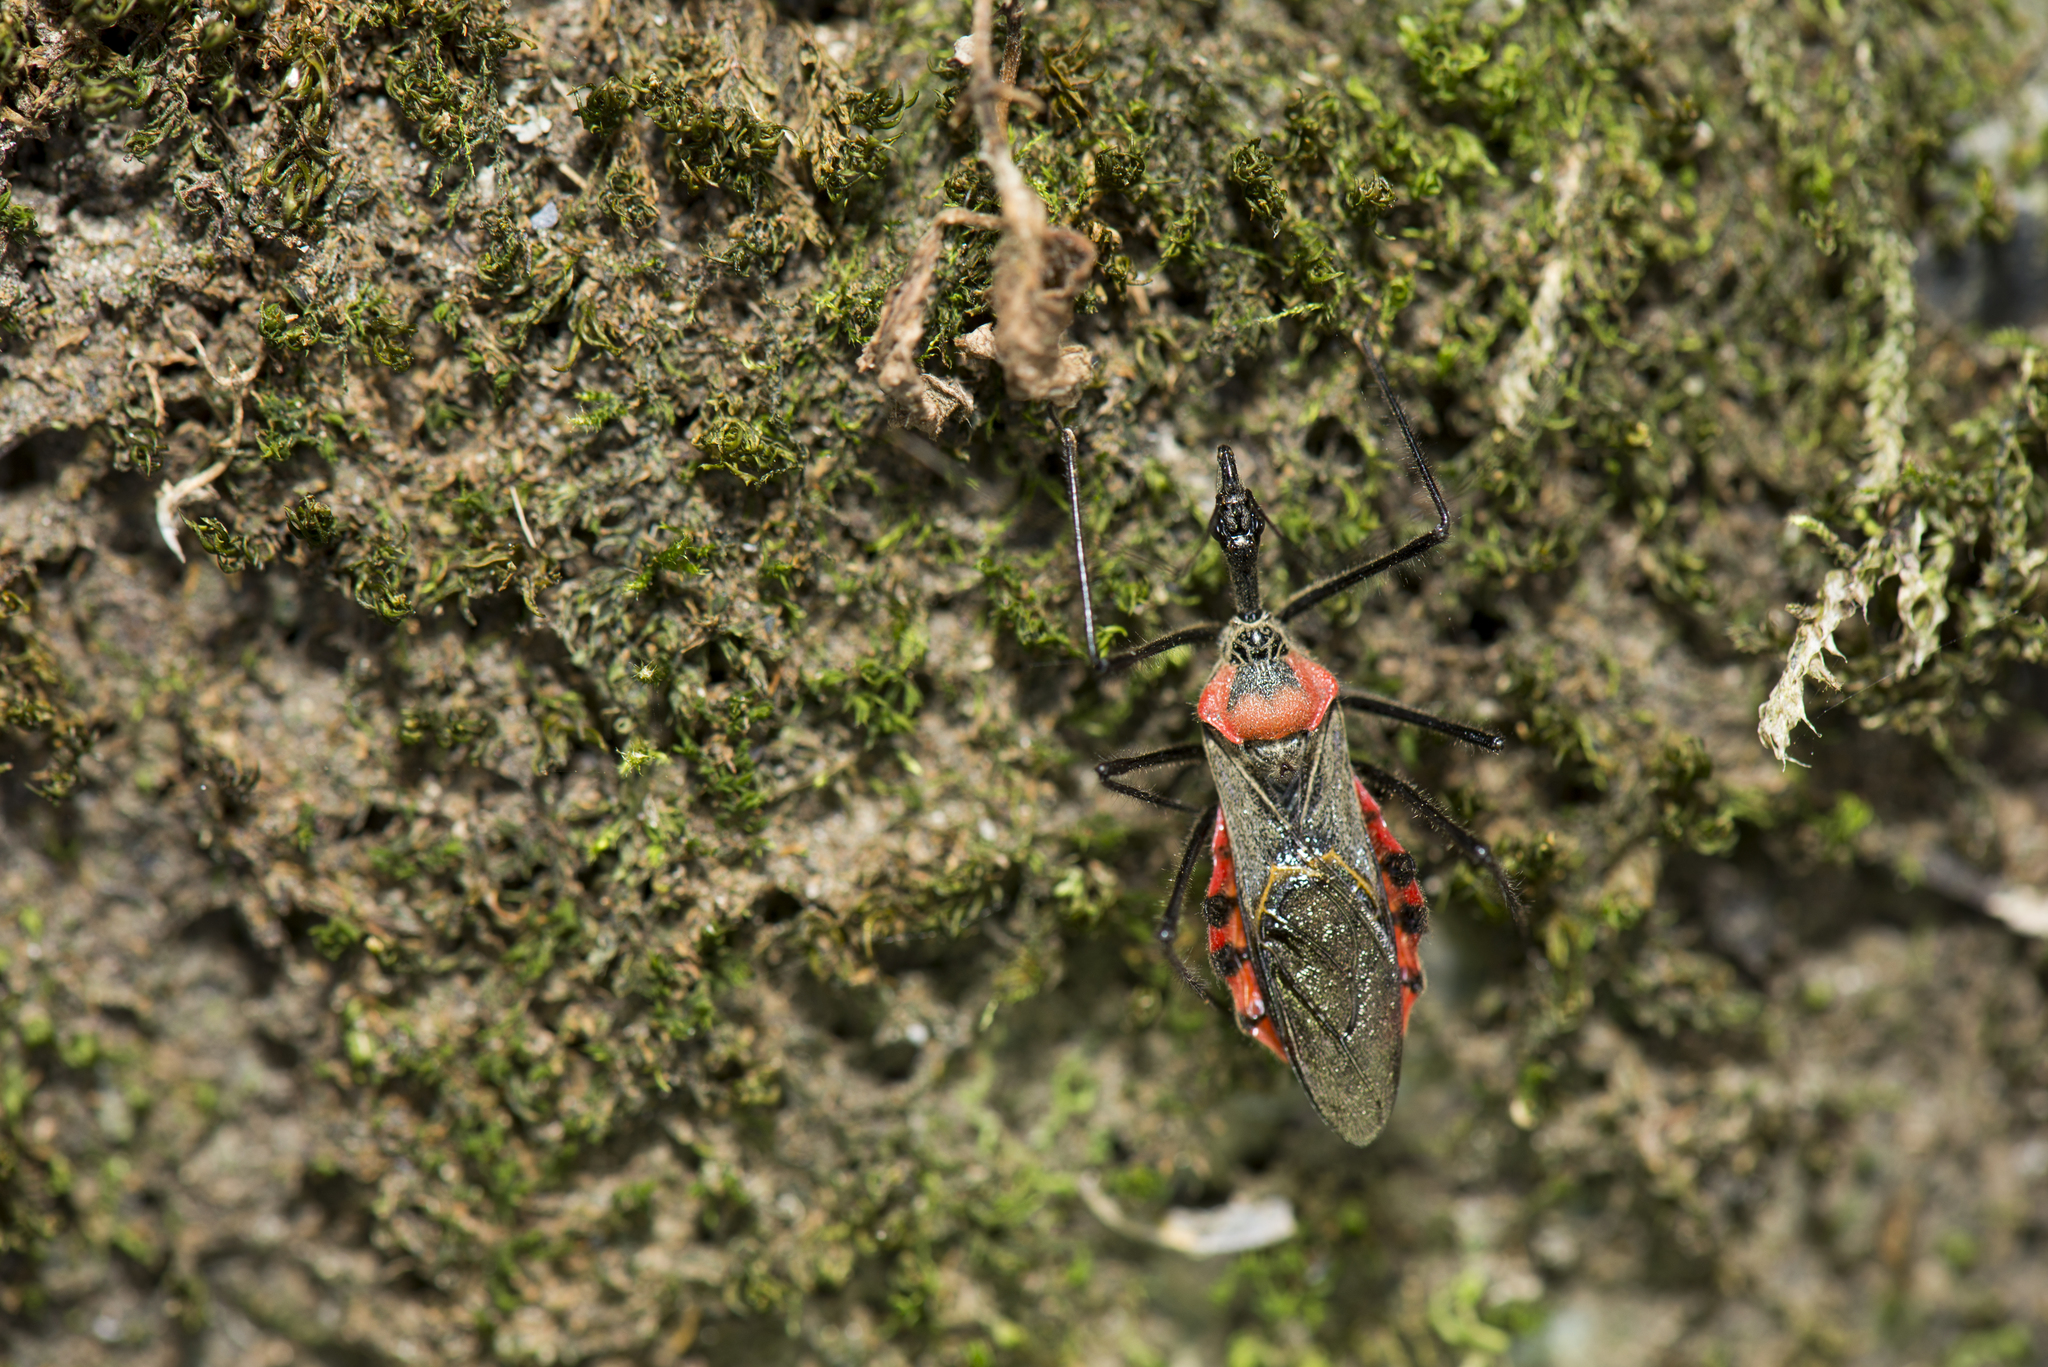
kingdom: Animalia
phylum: Arthropoda
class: Insecta
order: Hemiptera
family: Reduviidae
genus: Sycanus
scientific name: Sycanus
